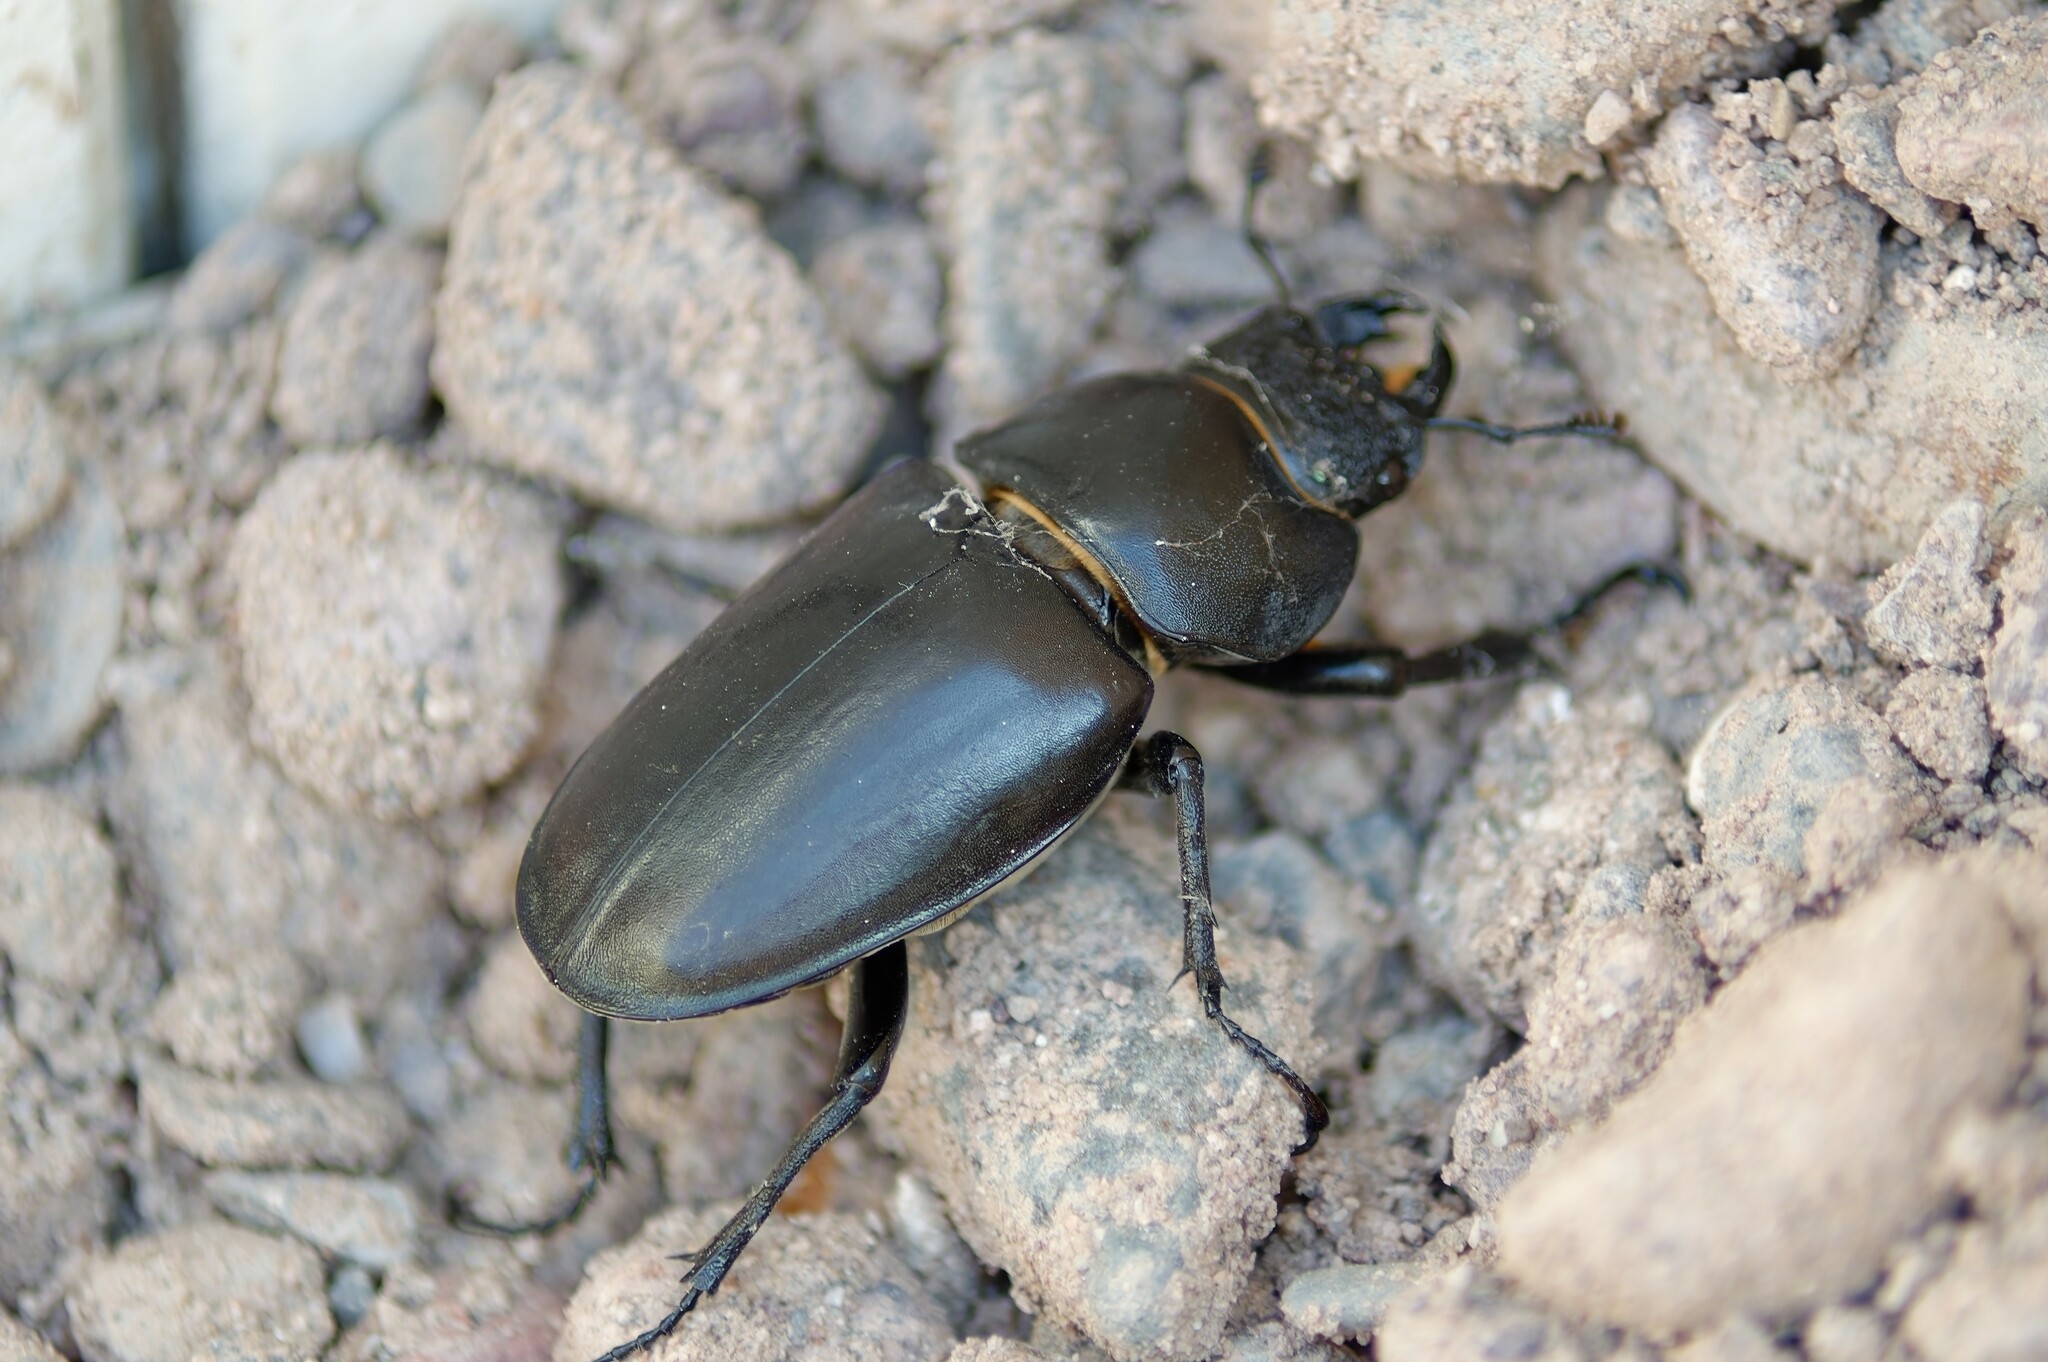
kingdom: Animalia
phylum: Arthropoda
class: Insecta
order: Coleoptera
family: Lucanidae
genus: Lucanus
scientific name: Lucanus cervus
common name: Stag beetle
